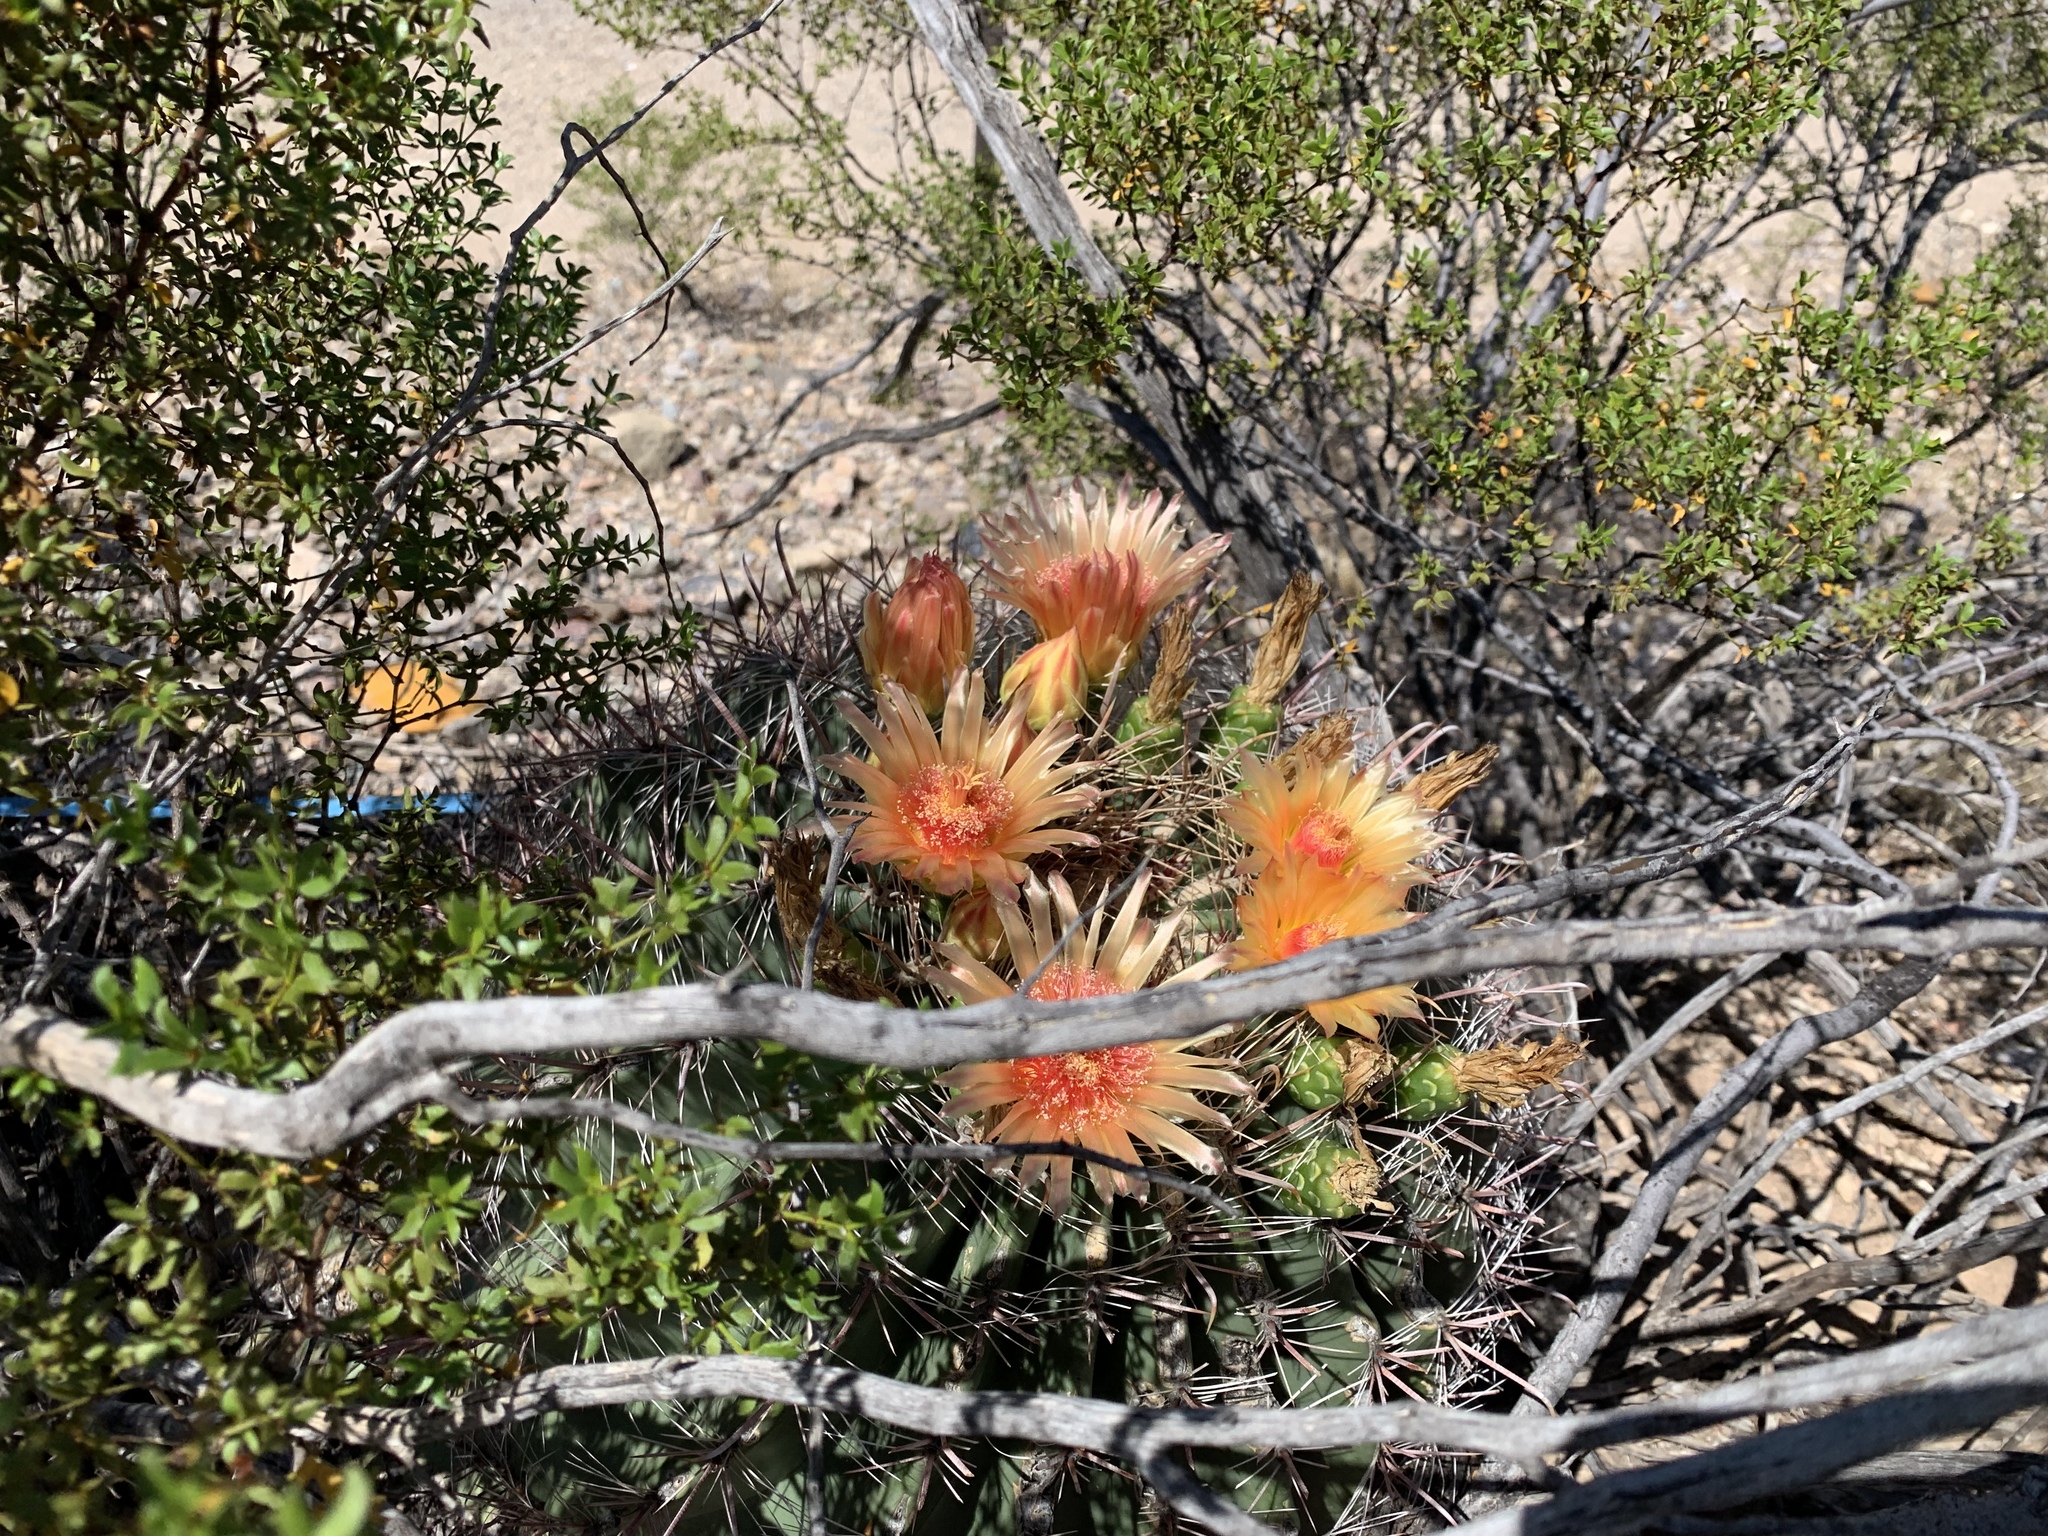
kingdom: Plantae
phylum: Tracheophyta
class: Magnoliopsida
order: Caryophyllales
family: Cactaceae
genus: Ferocactus
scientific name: Ferocactus wislizeni
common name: Candy barrel cactus
